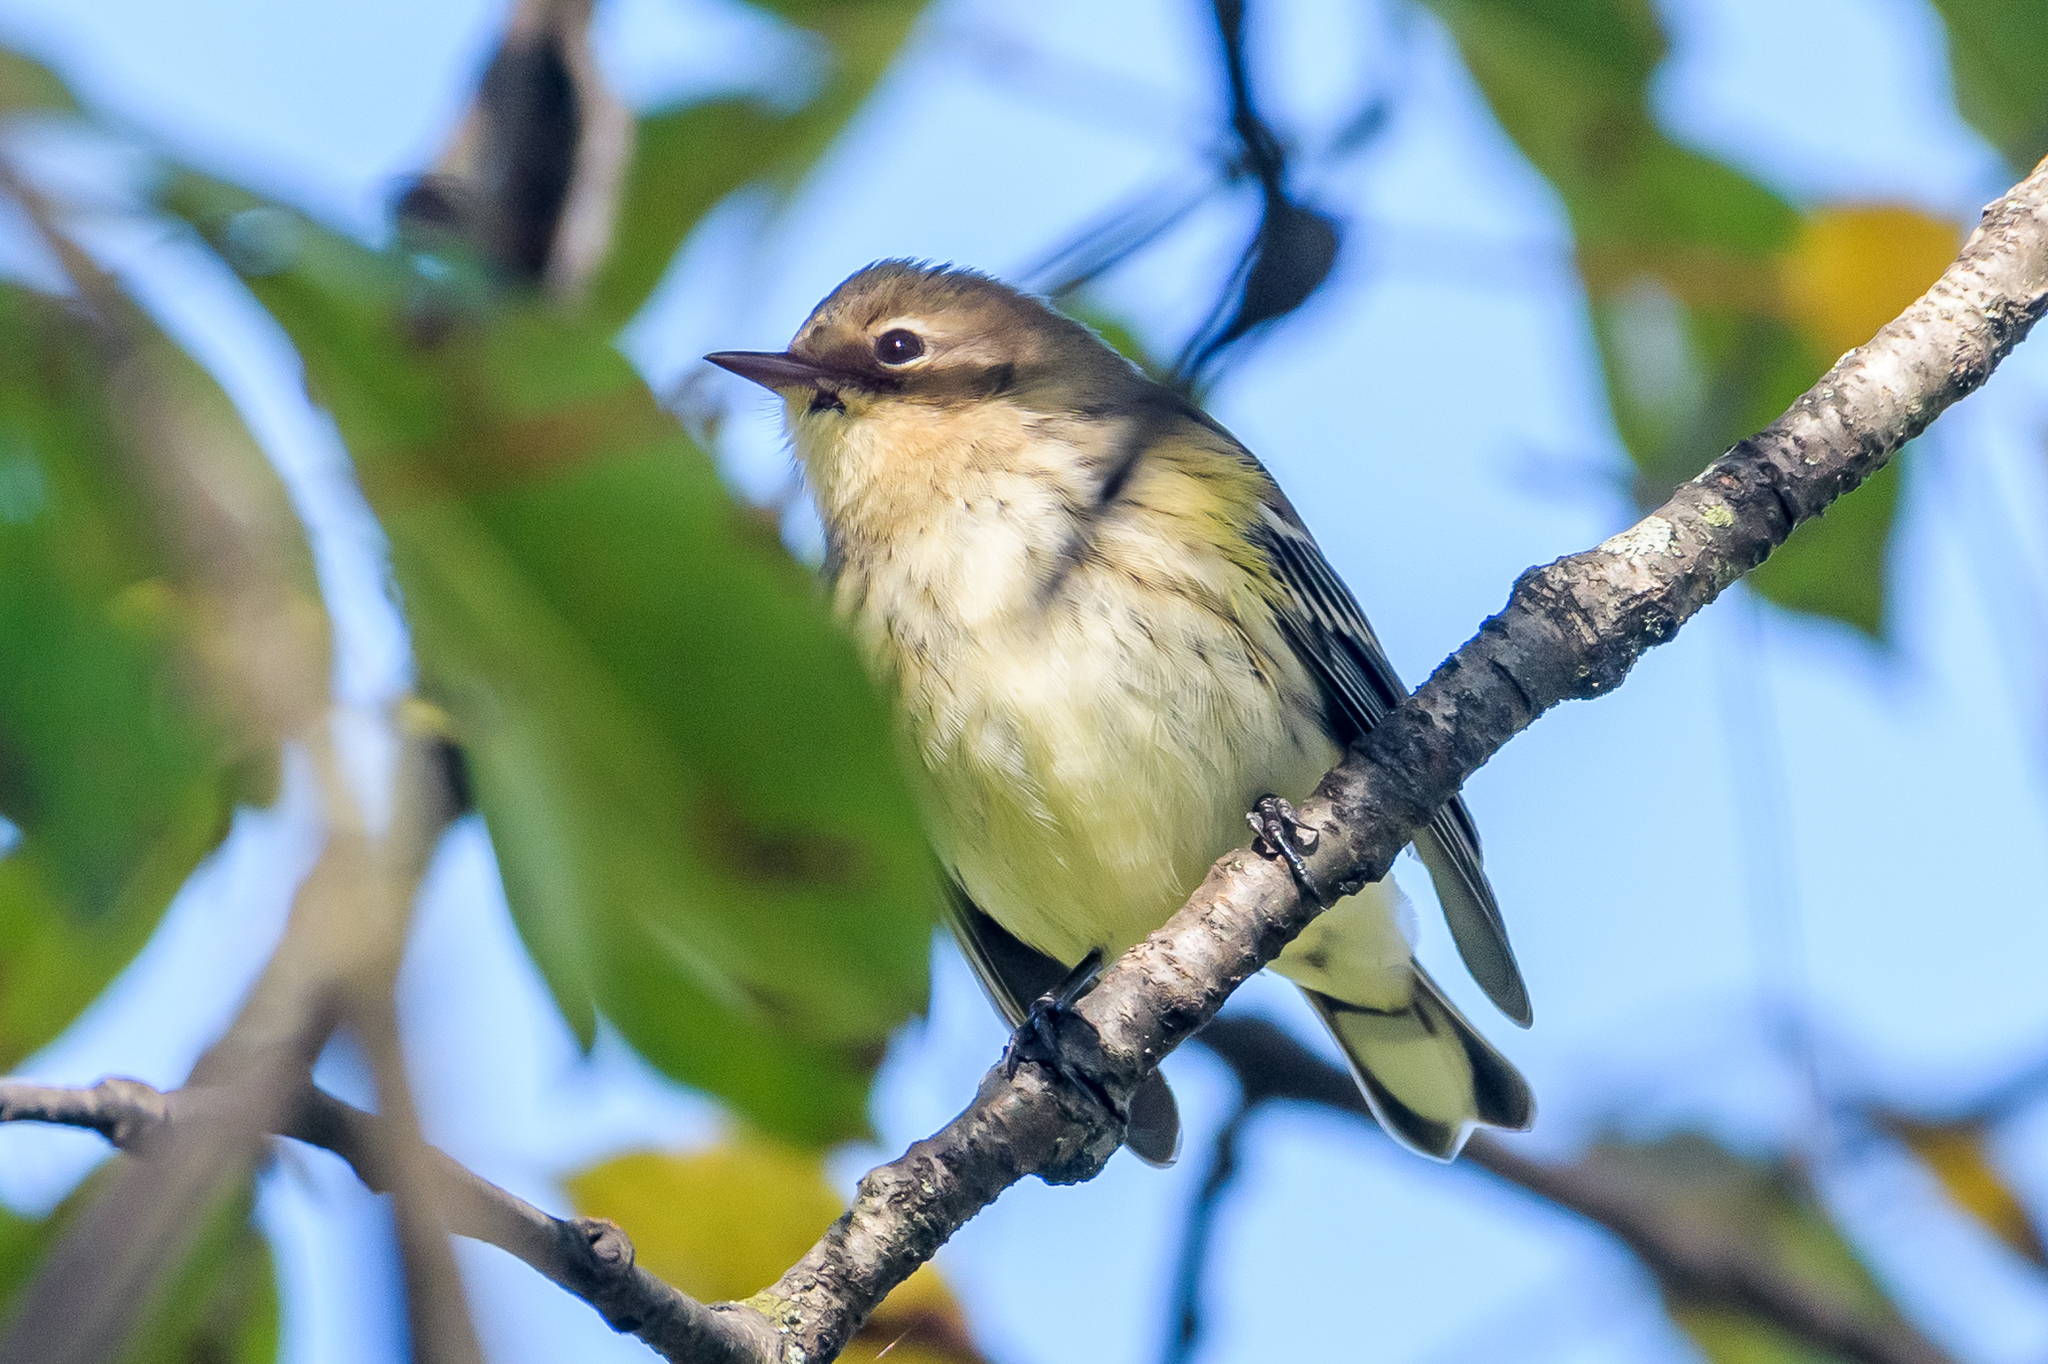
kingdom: Animalia
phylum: Chordata
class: Aves
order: Passeriformes
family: Parulidae
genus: Setophaga
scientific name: Setophaga coronata
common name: Myrtle warbler
